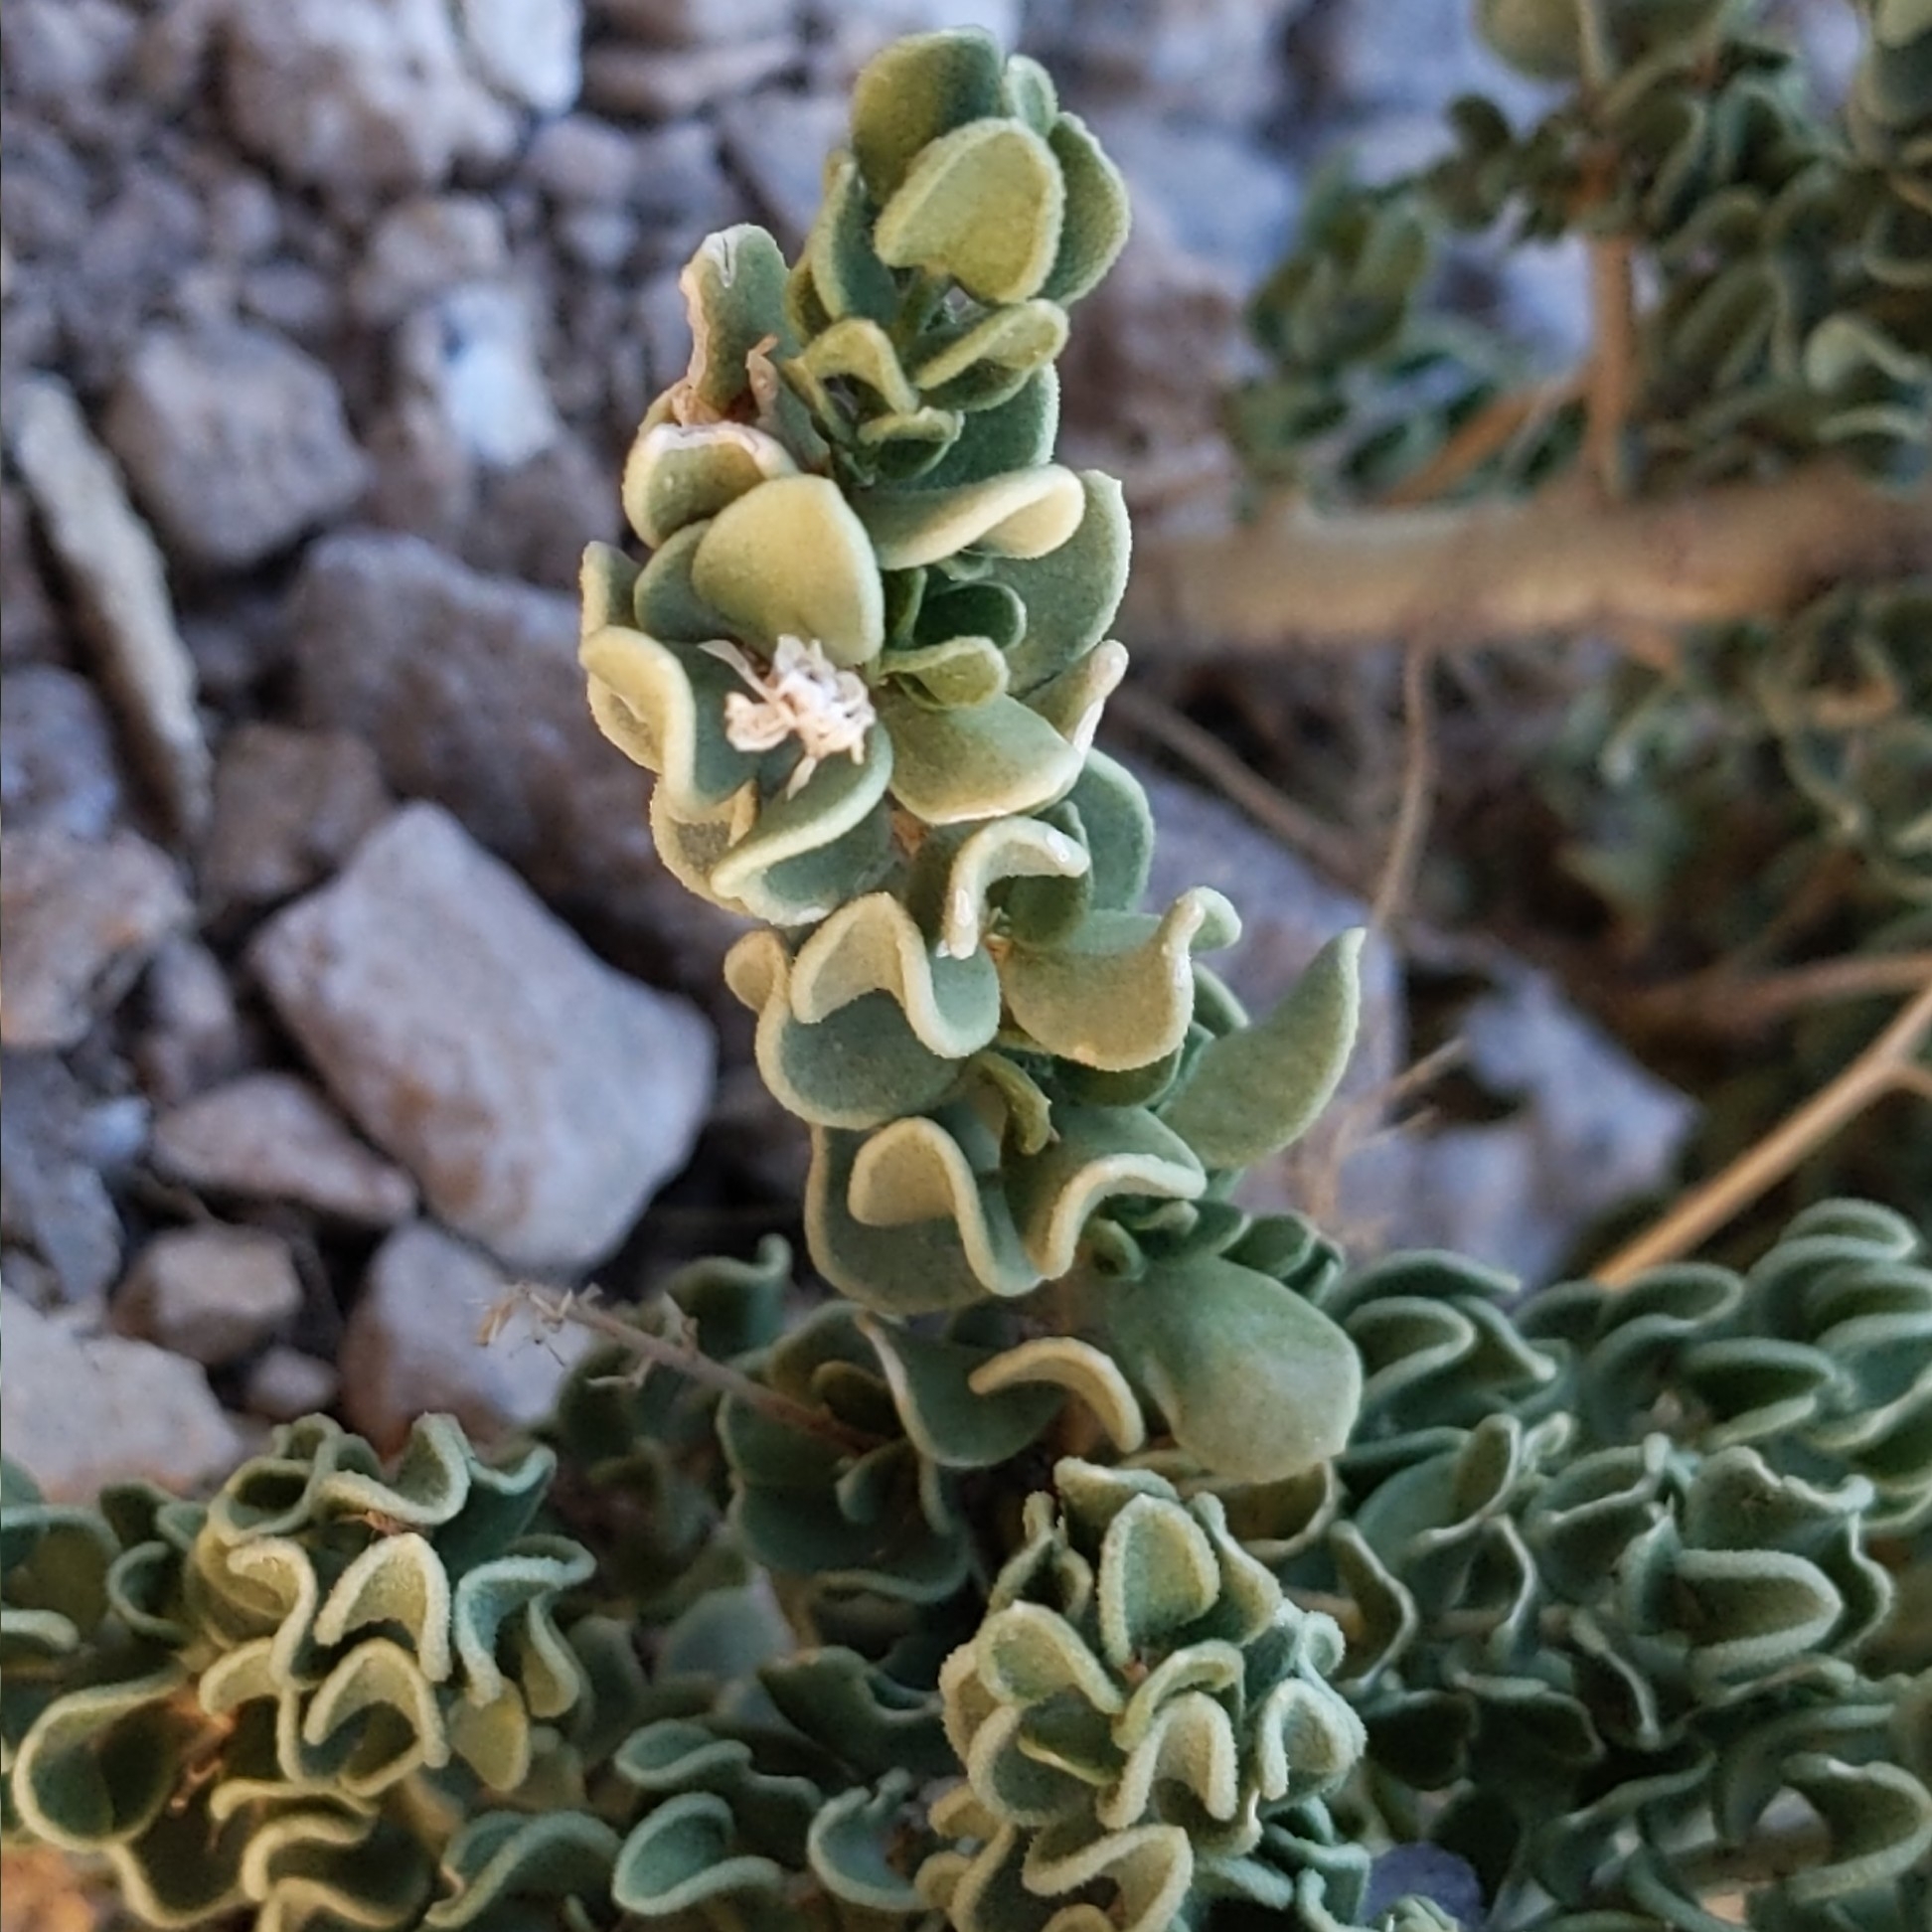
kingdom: Plantae
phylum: Tracheophyta
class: Magnoliopsida
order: Celastrales
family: Celastraceae
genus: Mortonia
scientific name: Mortonia utahensis
